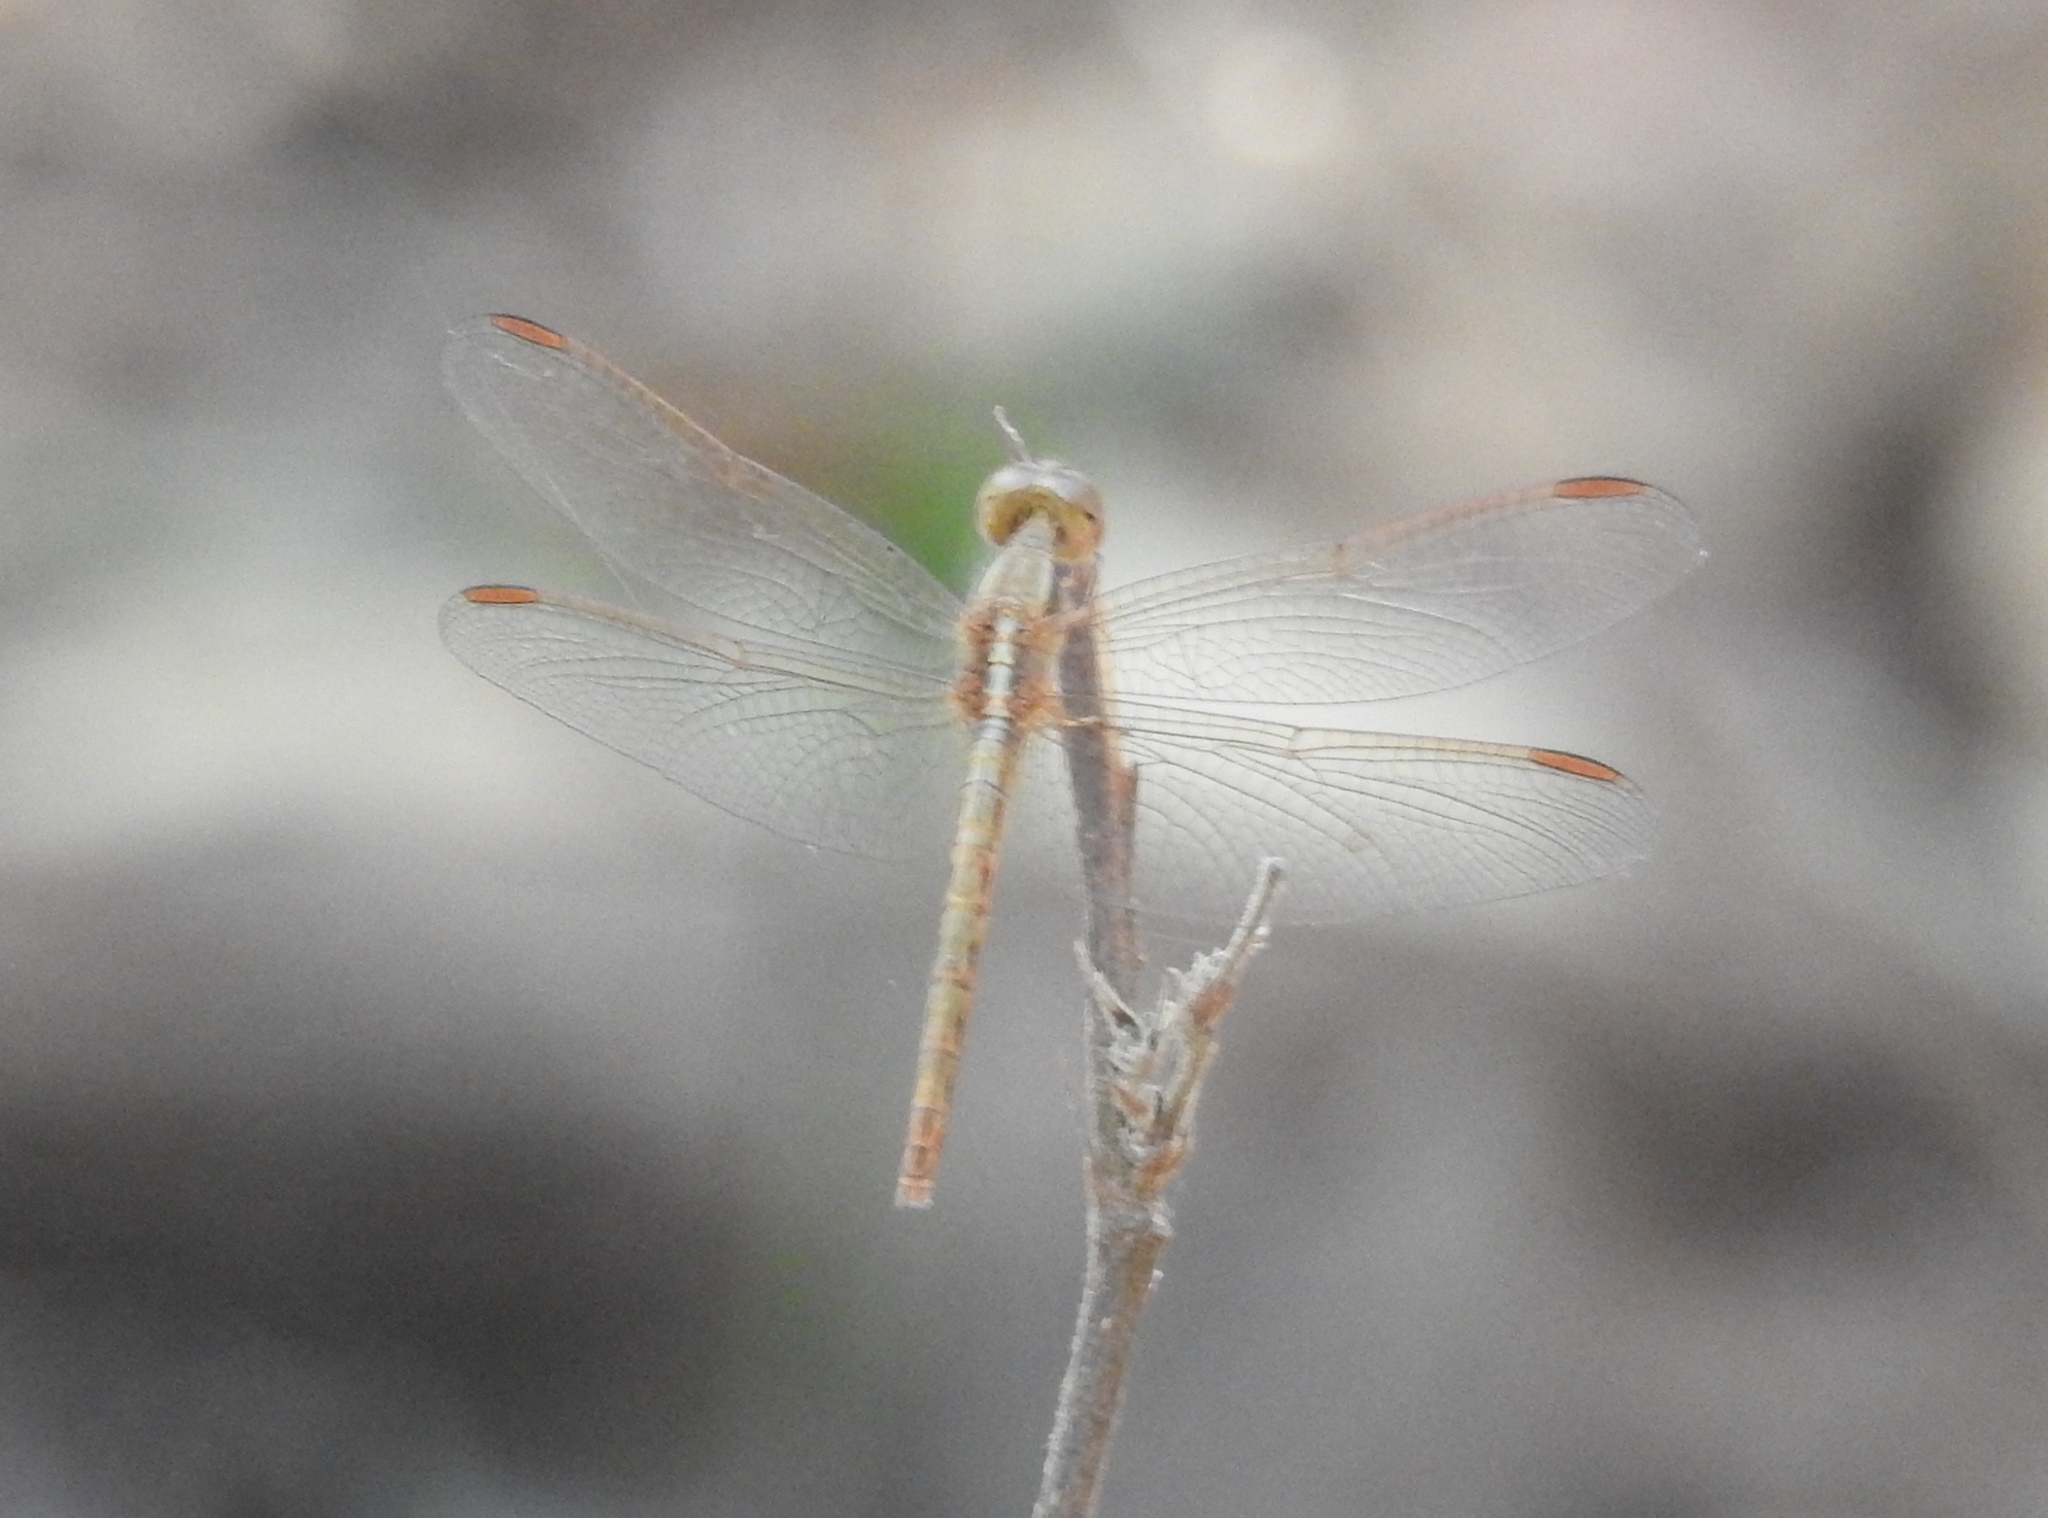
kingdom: Animalia
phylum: Arthropoda
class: Insecta
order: Odonata
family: Libellulidae
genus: Neurothemis
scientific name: Neurothemis intermedia
